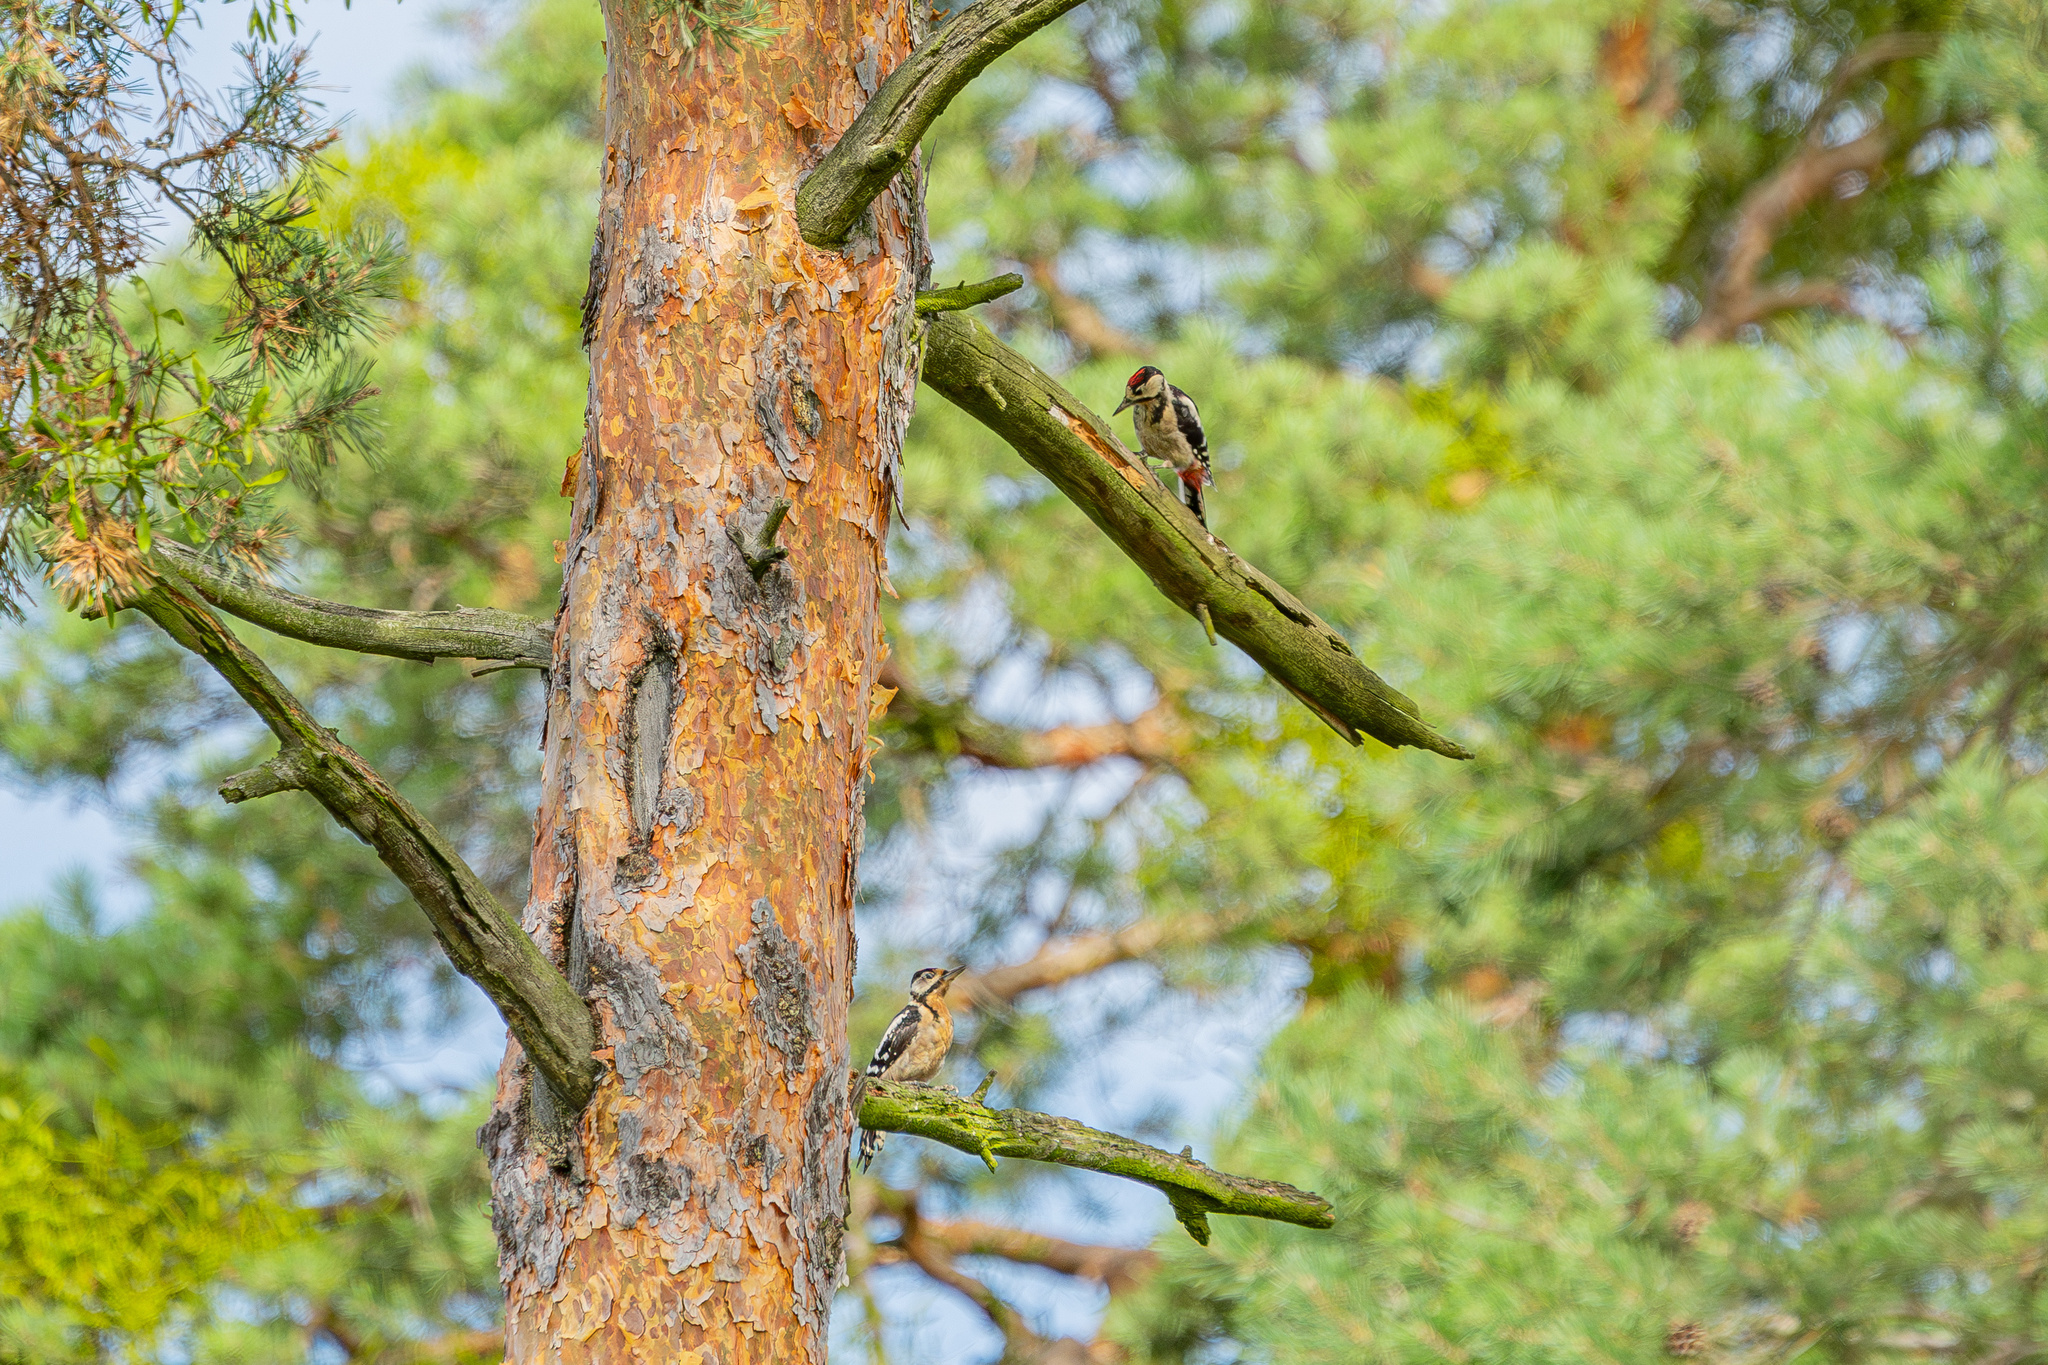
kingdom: Animalia
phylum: Chordata
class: Aves
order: Piciformes
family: Picidae
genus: Dendrocopos
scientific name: Dendrocopos major
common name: Great spotted woodpecker
